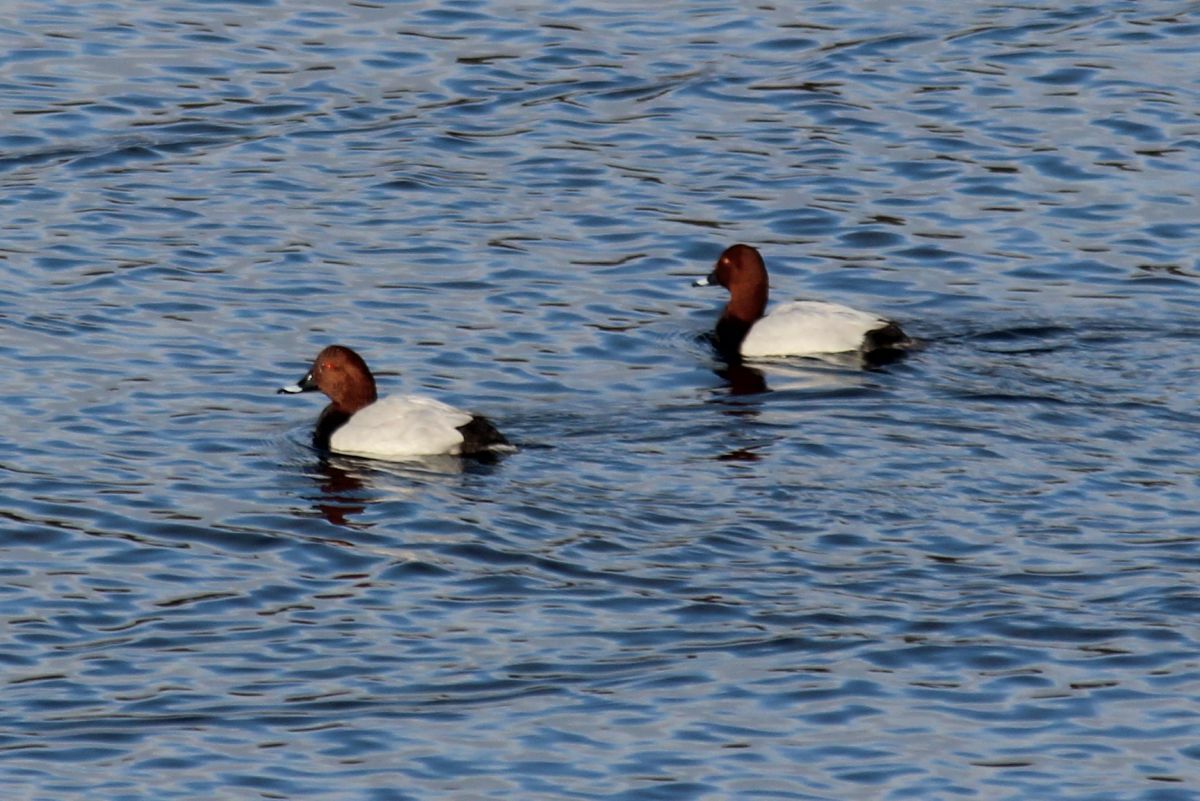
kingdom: Animalia
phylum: Chordata
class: Aves
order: Anseriformes
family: Anatidae
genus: Aythya
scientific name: Aythya ferina
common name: Common pochard
